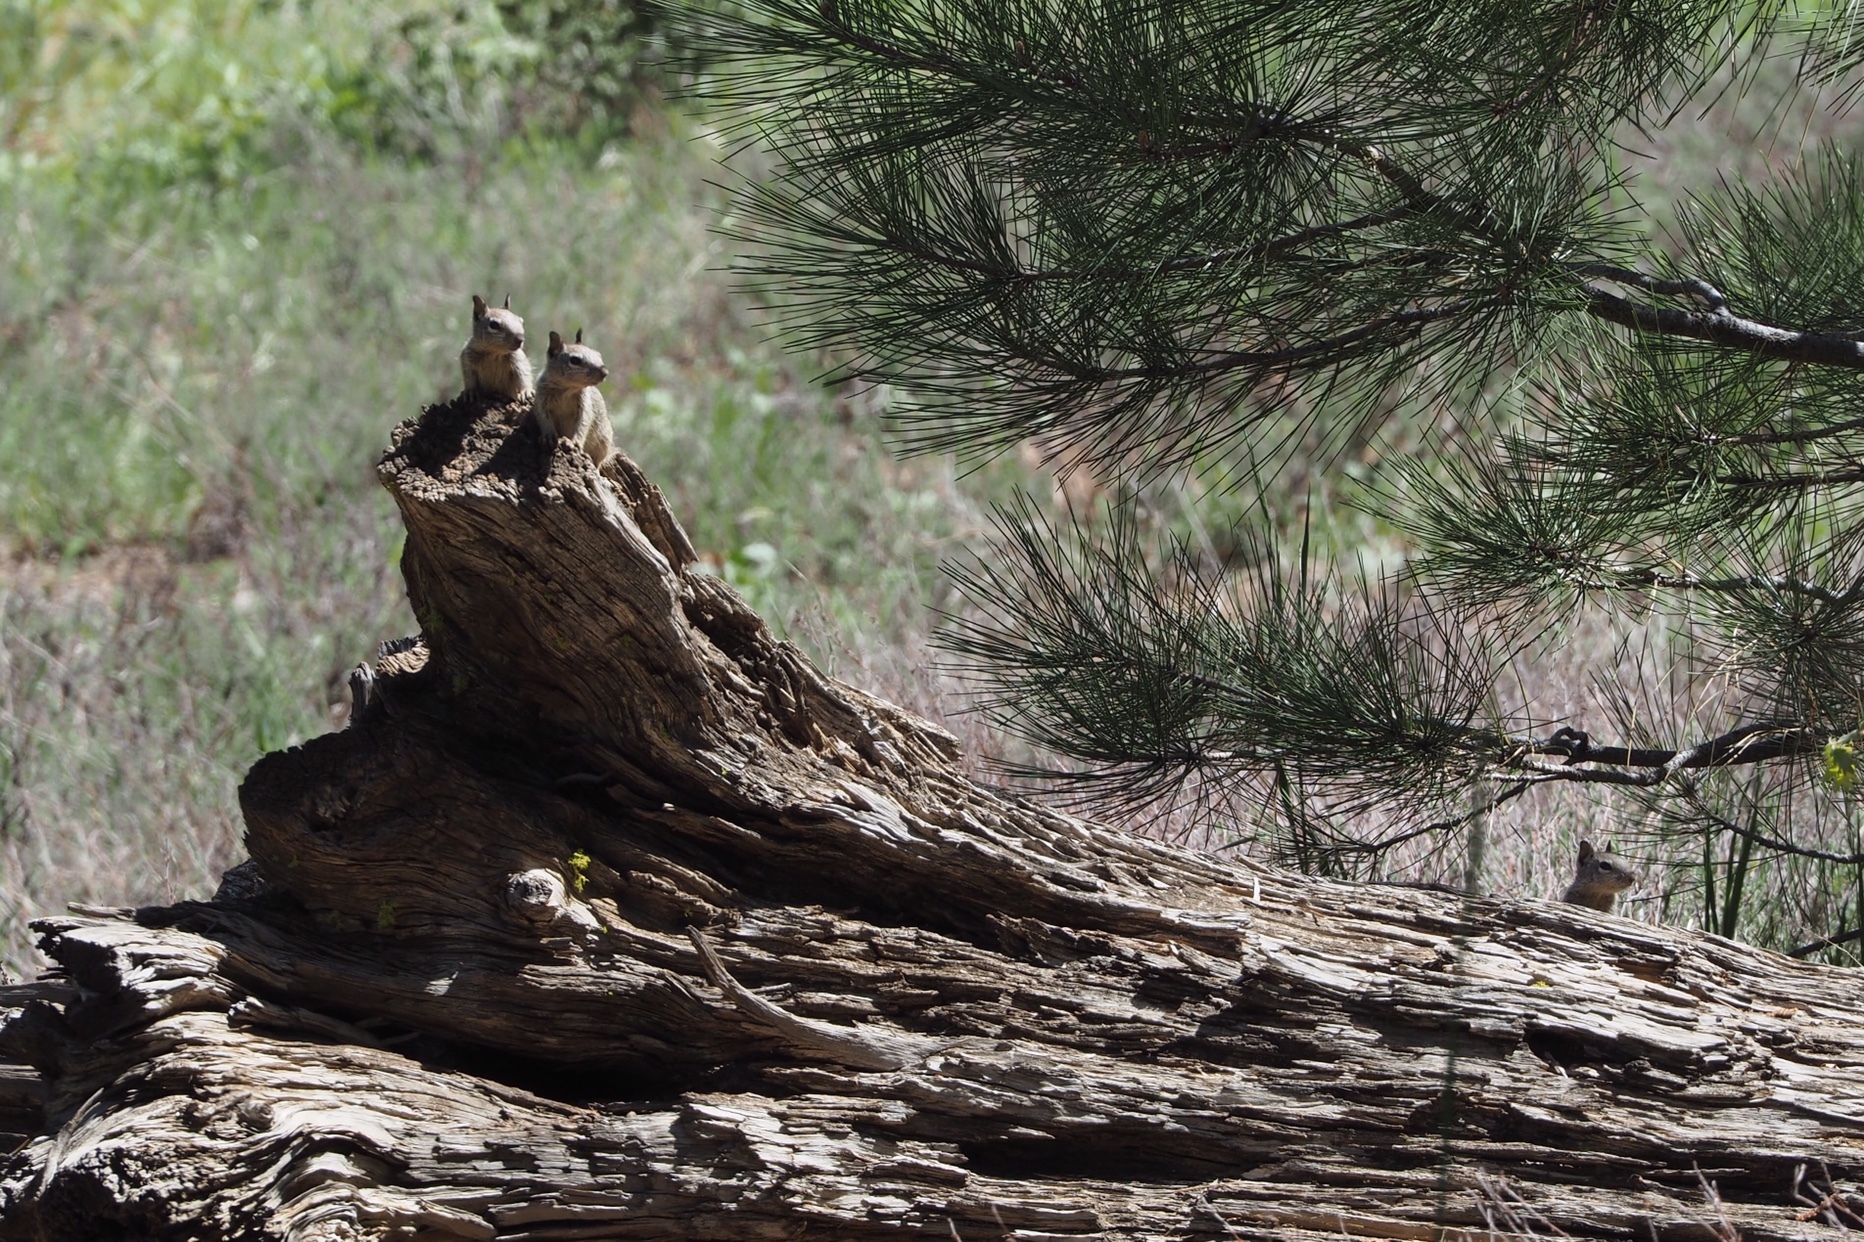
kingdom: Animalia
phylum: Chordata
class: Mammalia
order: Rodentia
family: Sciuridae
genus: Otospermophilus
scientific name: Otospermophilus beecheyi
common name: California ground squirrel
